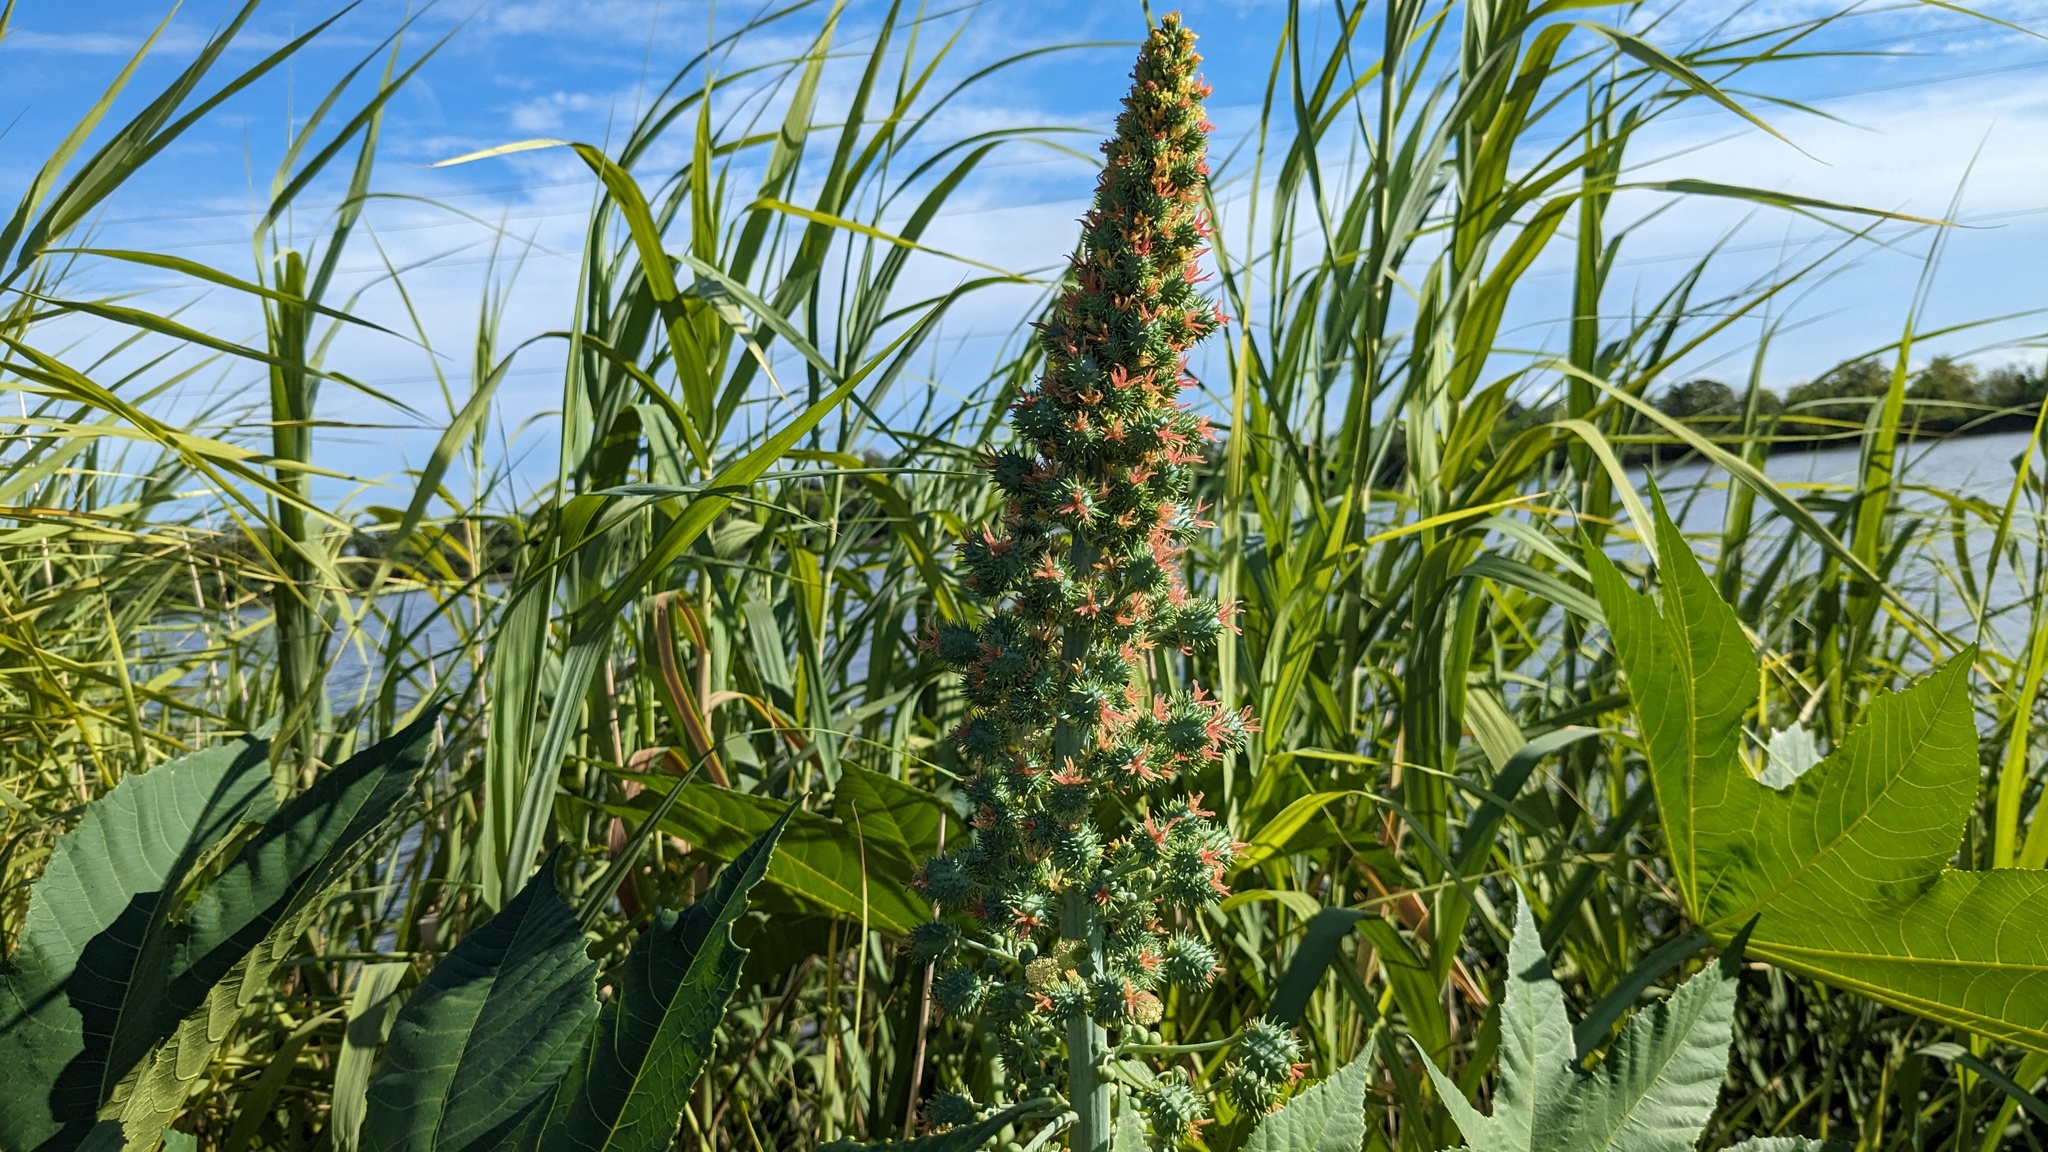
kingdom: Plantae
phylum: Tracheophyta
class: Magnoliopsida
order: Malpighiales
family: Euphorbiaceae
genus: Ricinus
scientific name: Ricinus communis
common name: Castor-oil-plant
